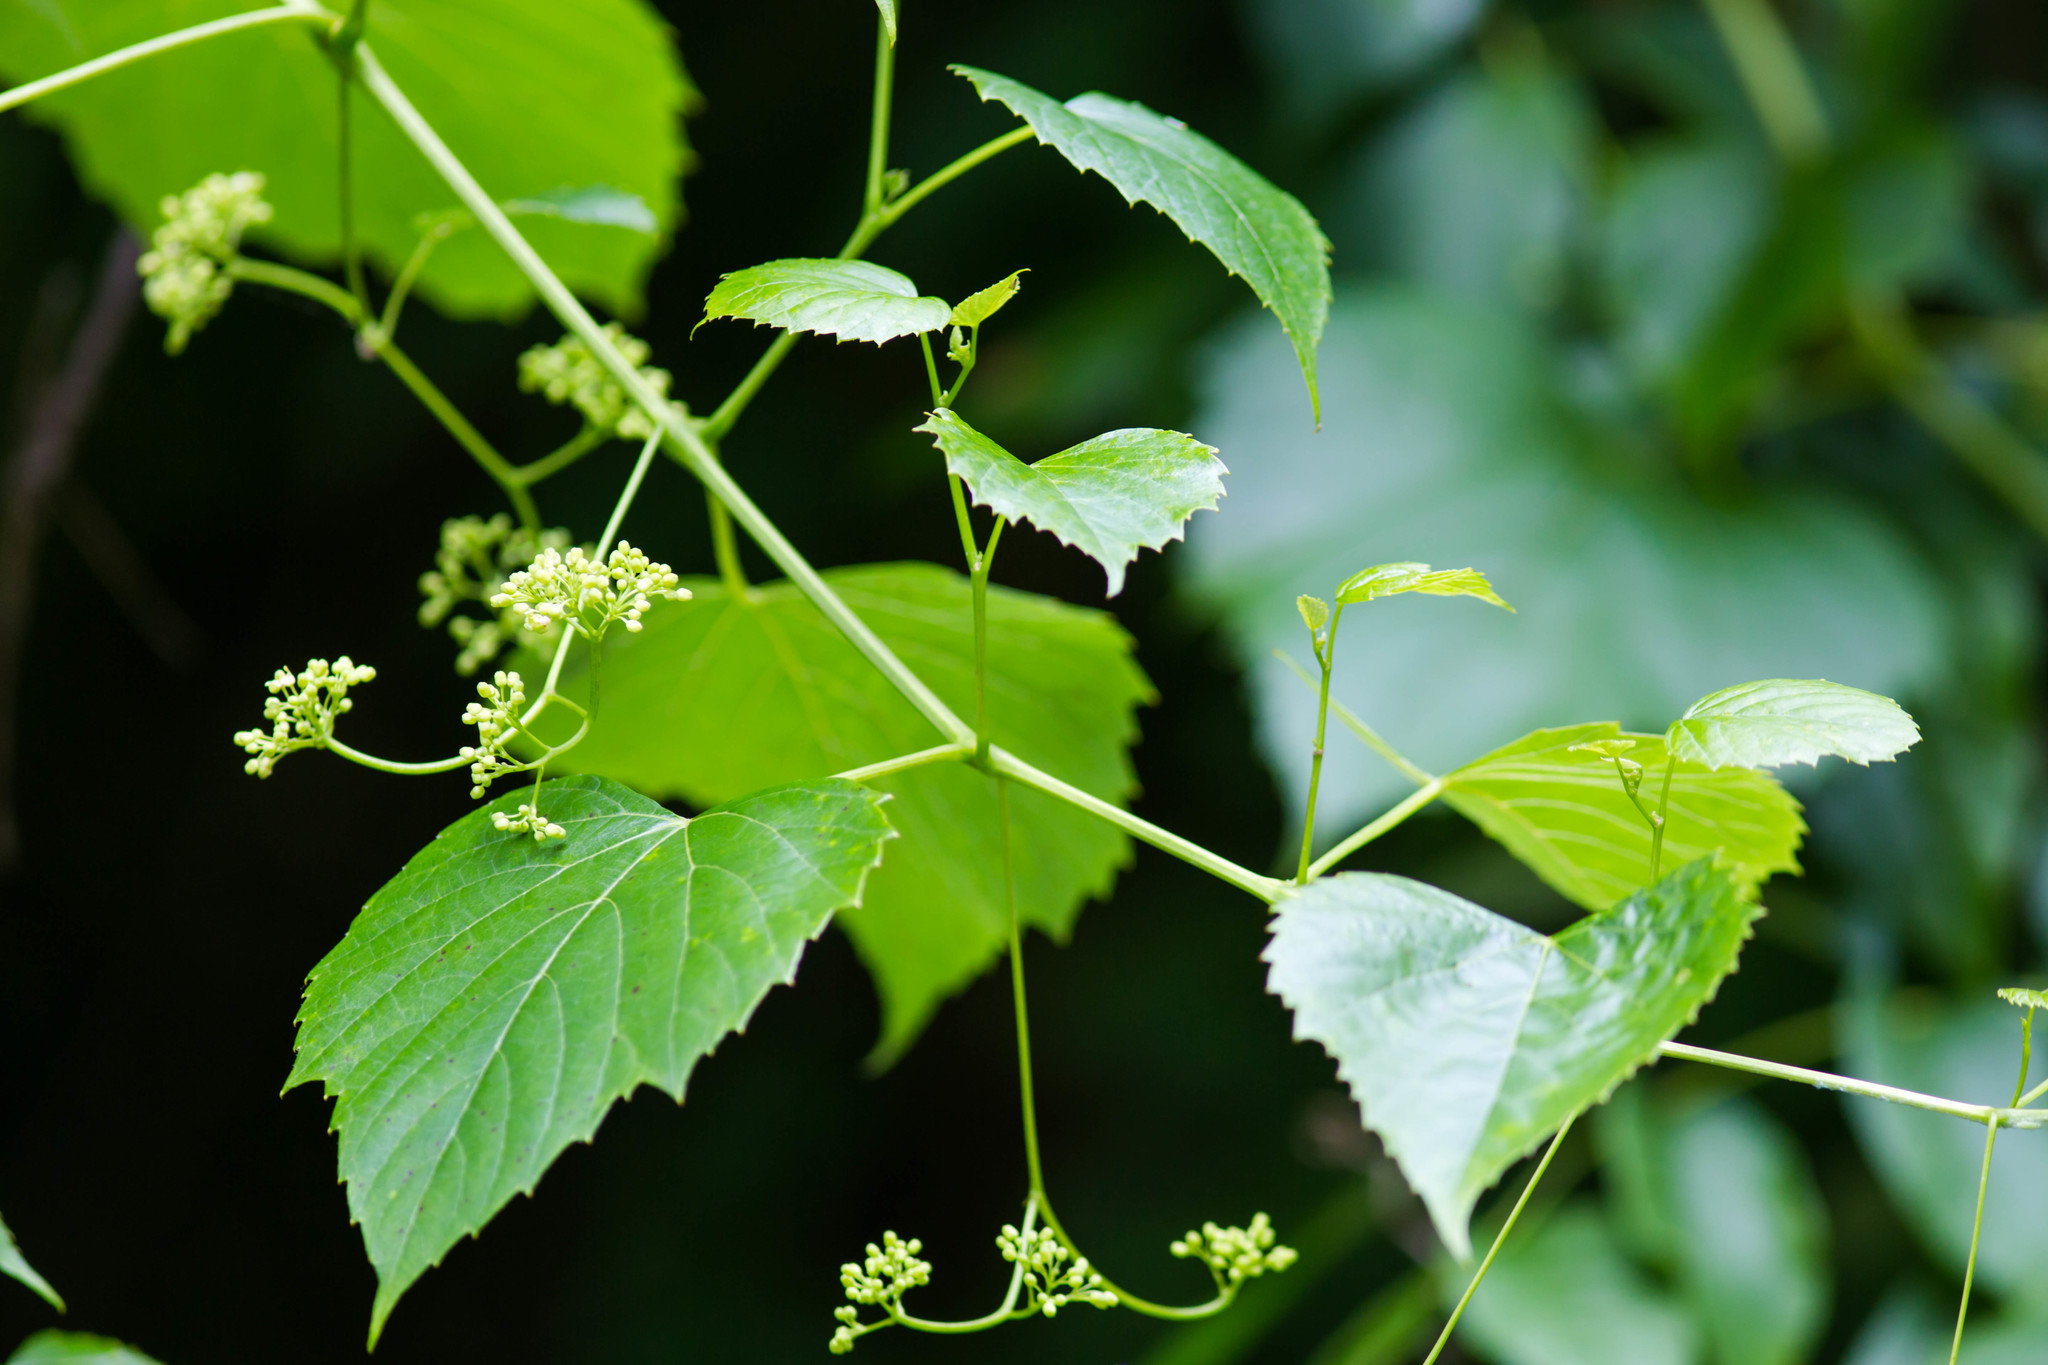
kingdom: Plantae
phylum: Tracheophyta
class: Magnoliopsida
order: Vitales
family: Vitaceae
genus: Ampelopsis
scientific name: Ampelopsis cordata
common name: Heart-leaf ampelopsis
